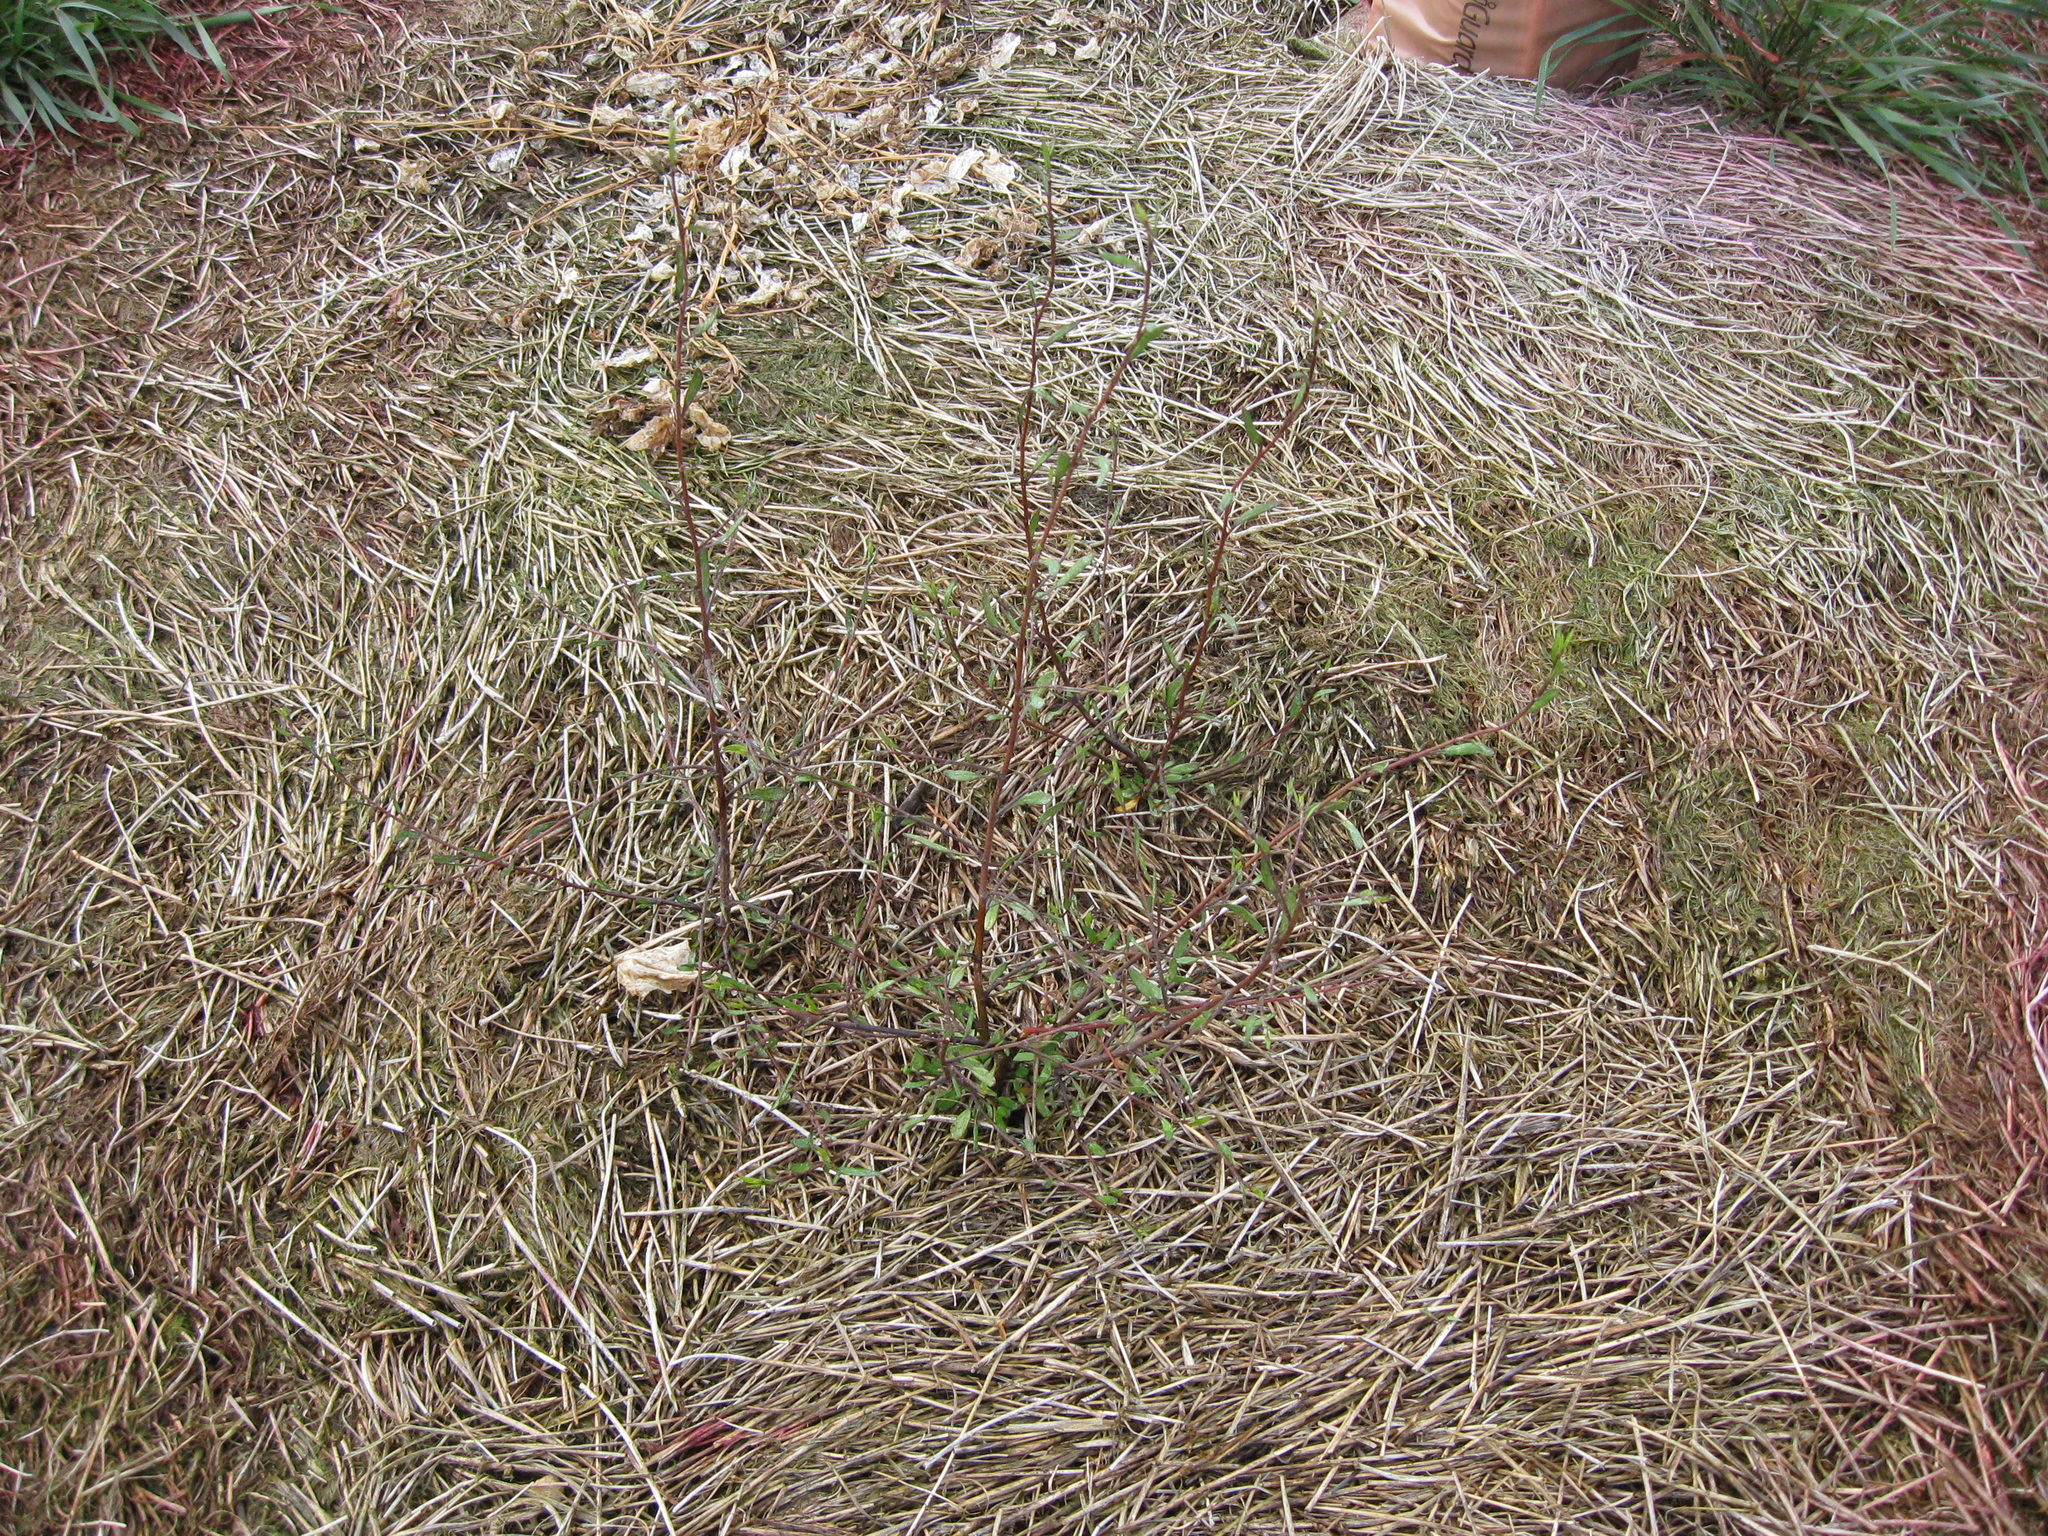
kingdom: Plantae
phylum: Tracheophyta
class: Magnoliopsida
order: Malvales
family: Malvaceae
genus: Plagianthus
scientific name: Plagianthus divaricatus
